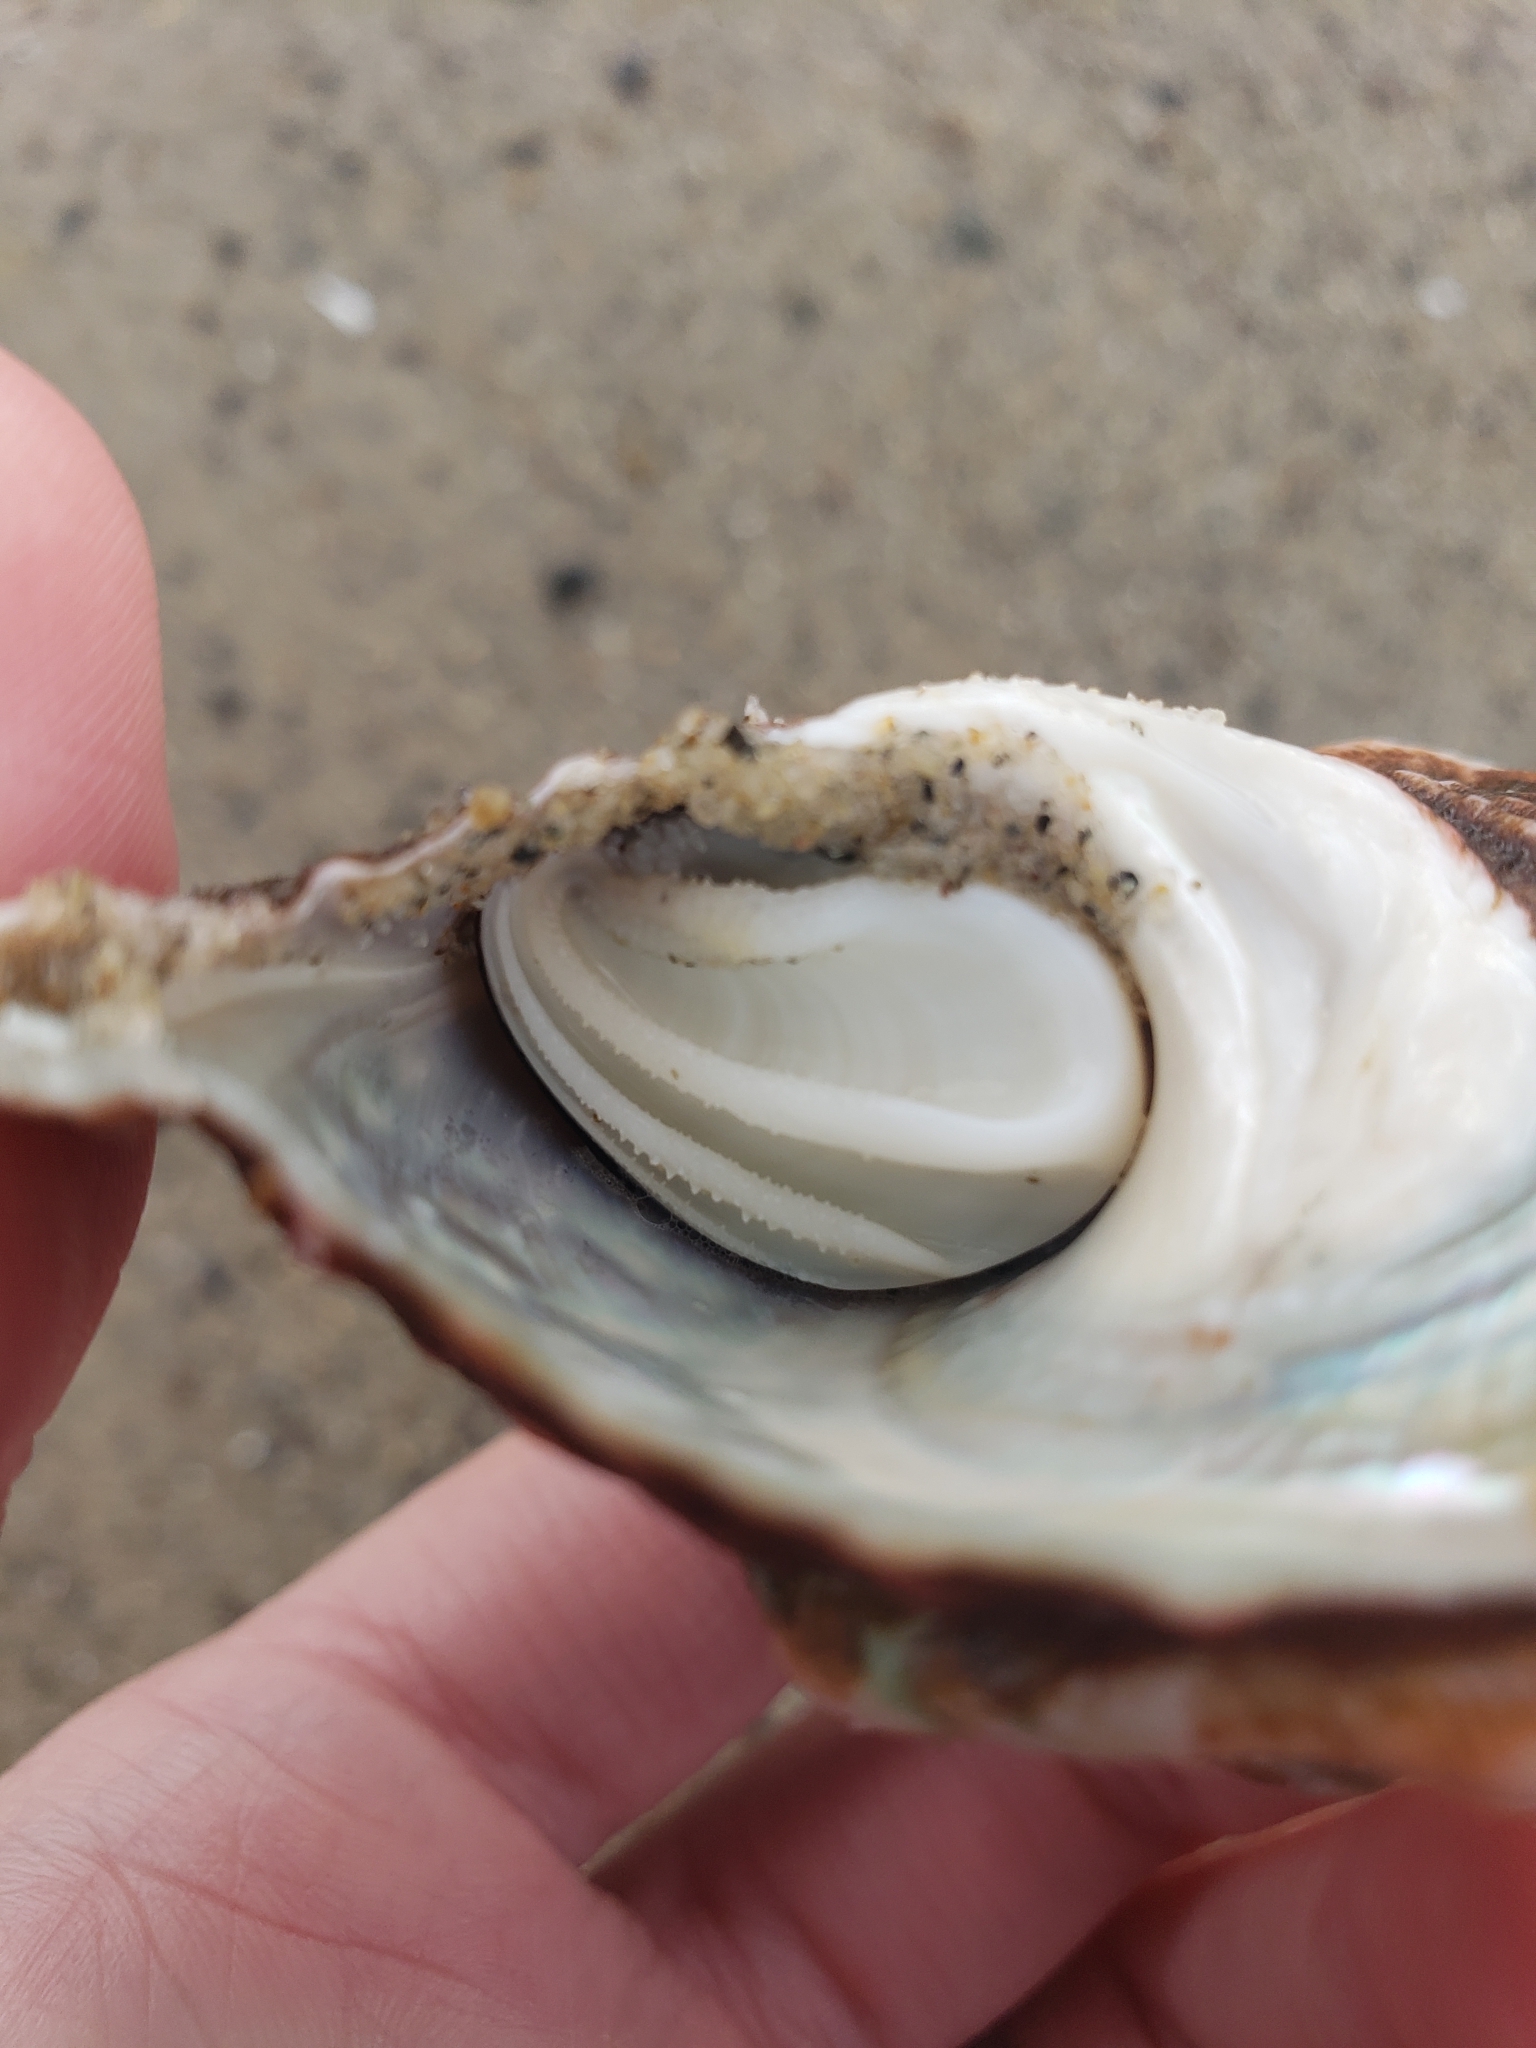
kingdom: Animalia
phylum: Mollusca
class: Gastropoda
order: Trochida
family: Turbinidae
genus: Megastraea
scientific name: Megastraea undosa
